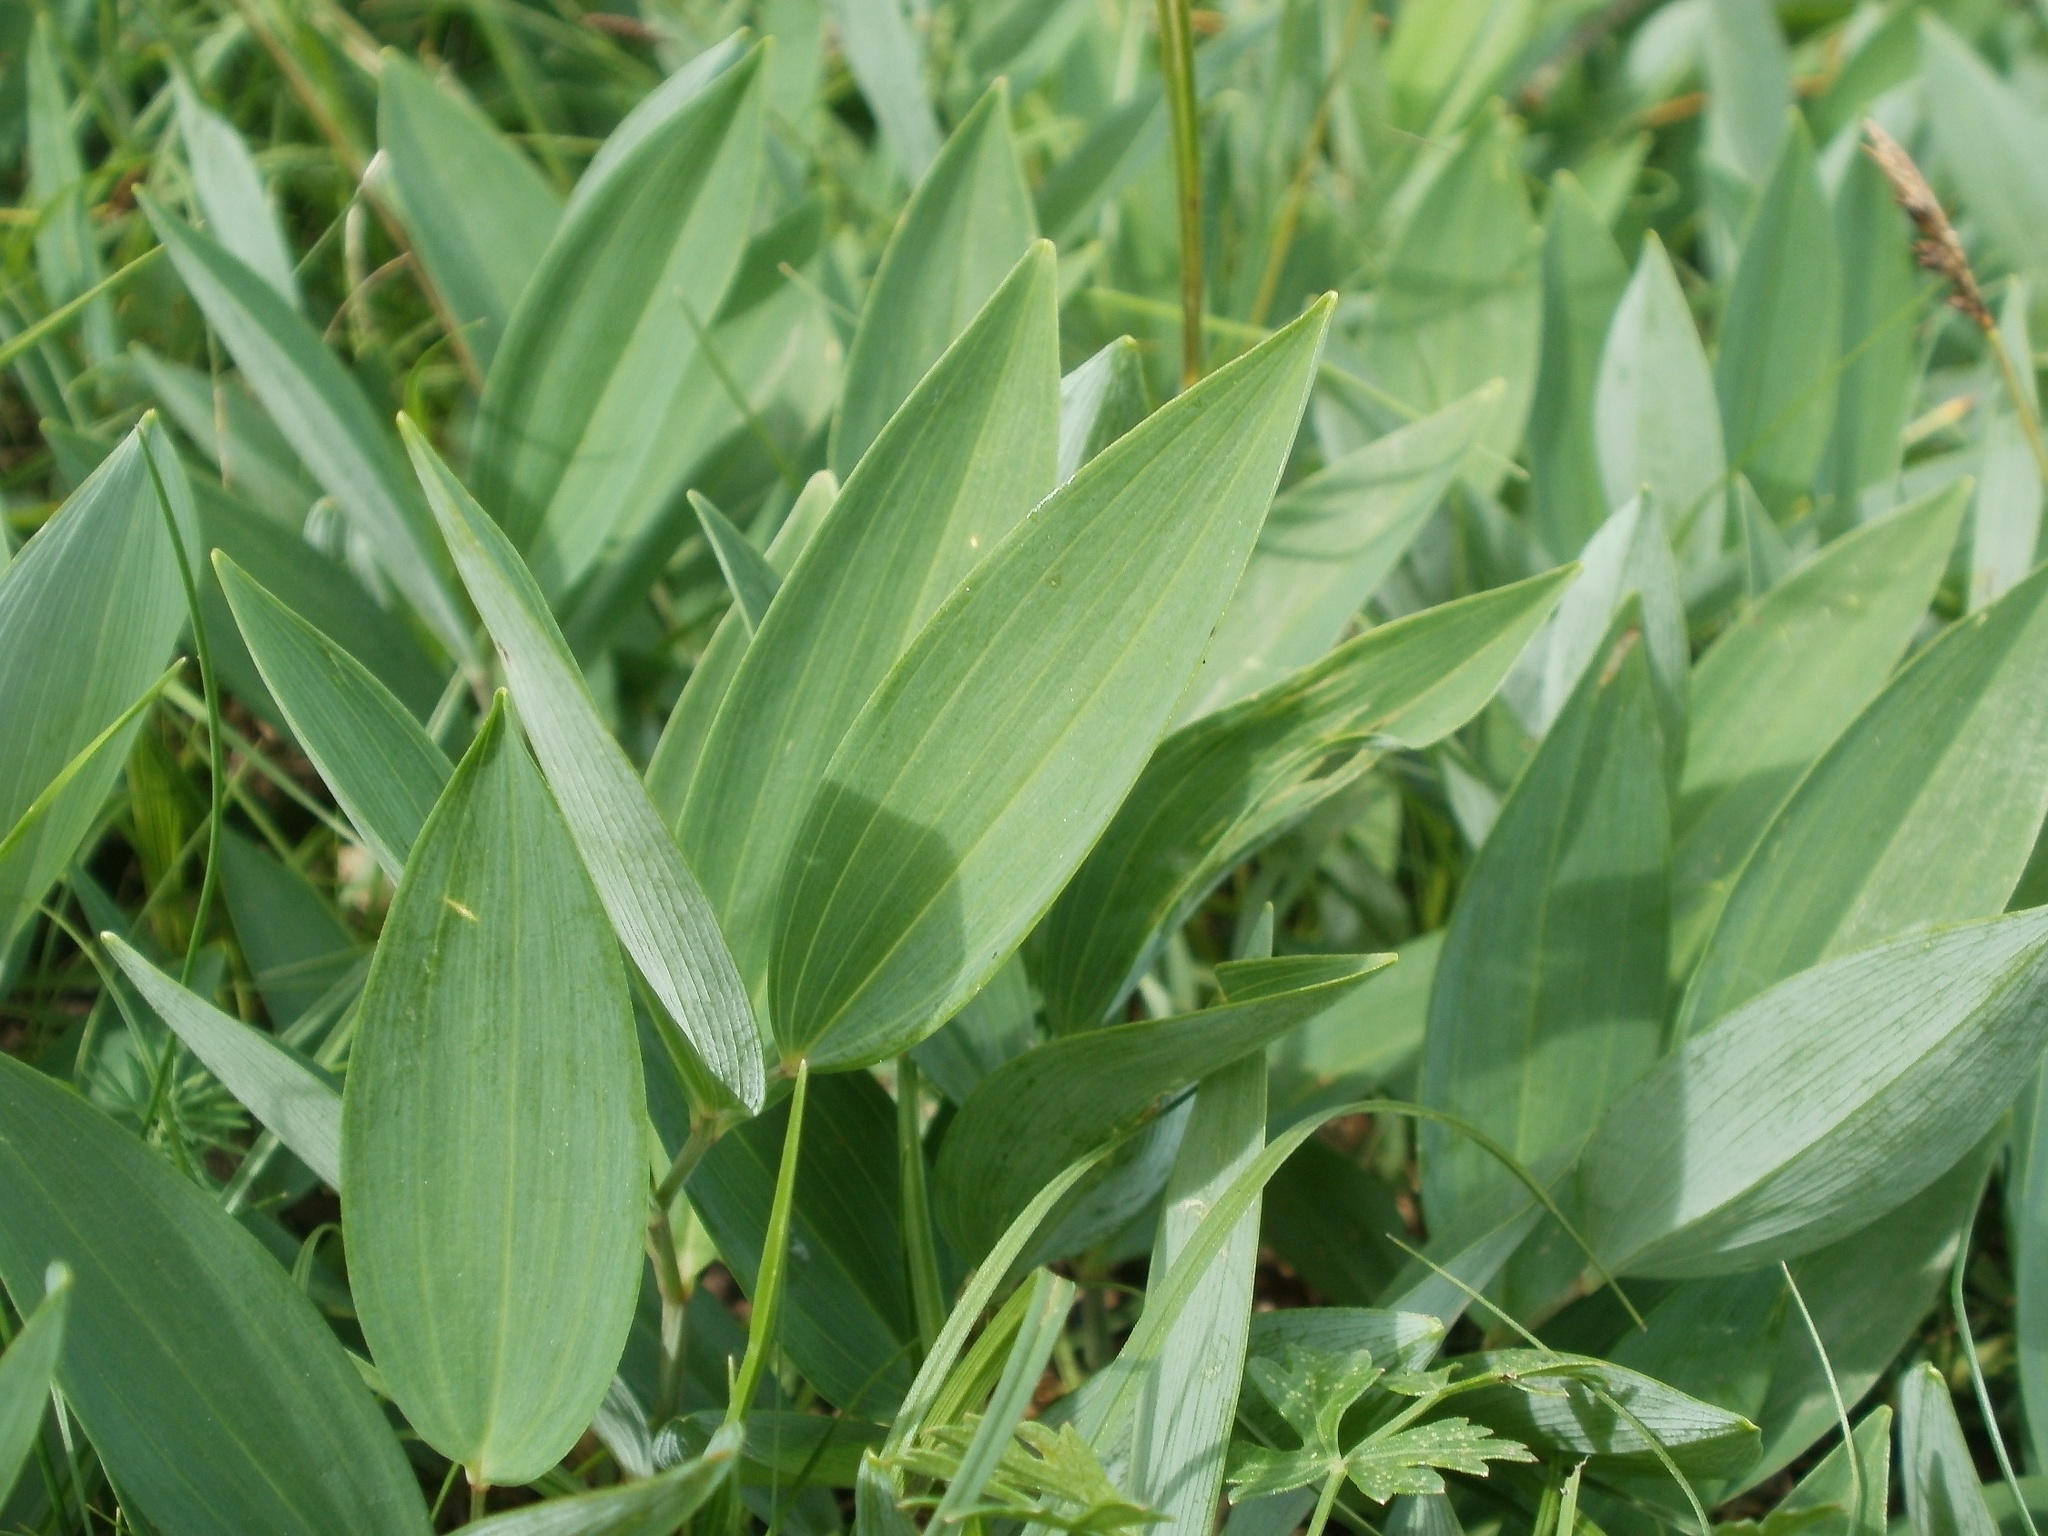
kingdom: Plantae
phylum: Tracheophyta
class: Liliopsida
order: Asparagales
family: Asparagaceae
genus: Polygonatum
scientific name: Polygonatum odoratum
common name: Angular solomon's-seal
